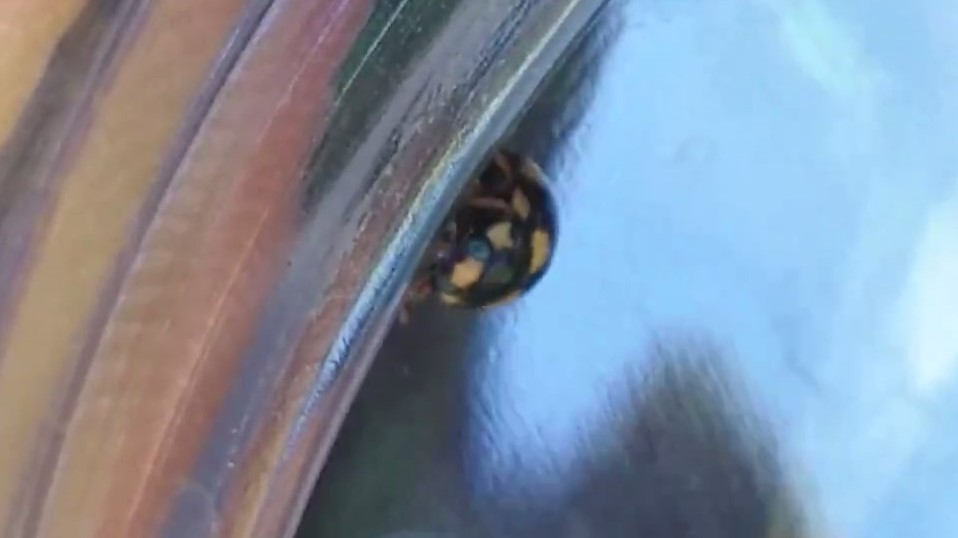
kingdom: Animalia
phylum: Arthropoda
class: Insecta
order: Coleoptera
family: Coccinellidae
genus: Brachiacantha
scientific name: Brachiacantha decempustulata
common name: Ten-spotted spurleg lady beetle
